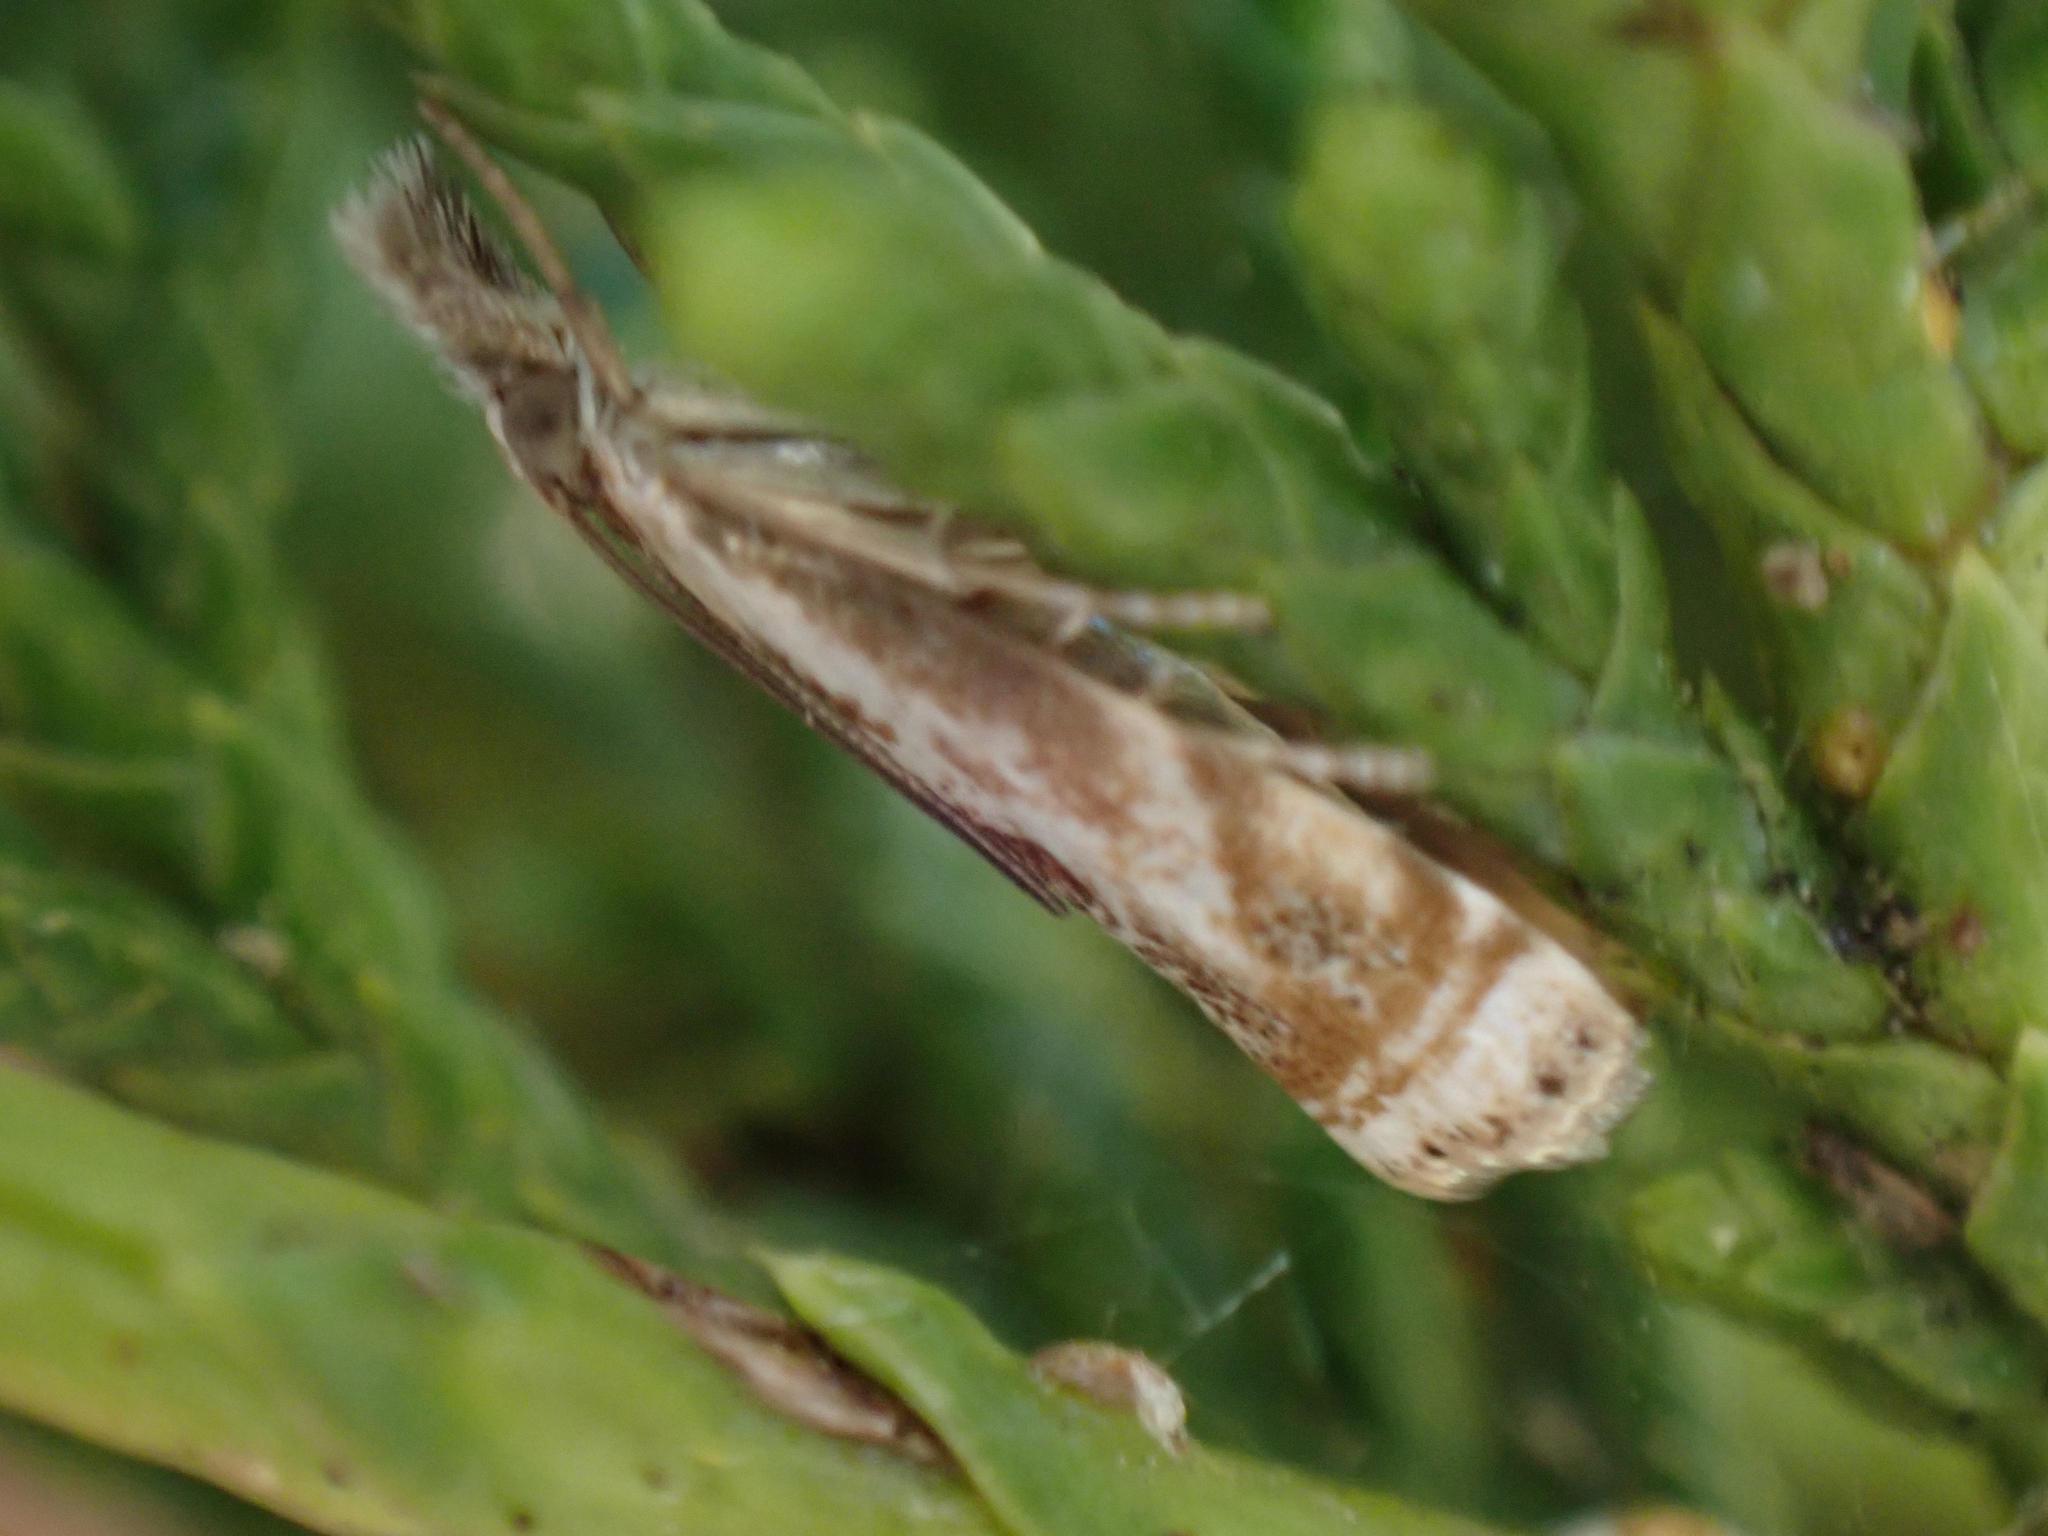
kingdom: Animalia
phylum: Arthropoda
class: Insecta
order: Lepidoptera
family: Crambidae
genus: Microcrambus
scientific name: Microcrambus elegans
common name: Elegant grass-veneer
